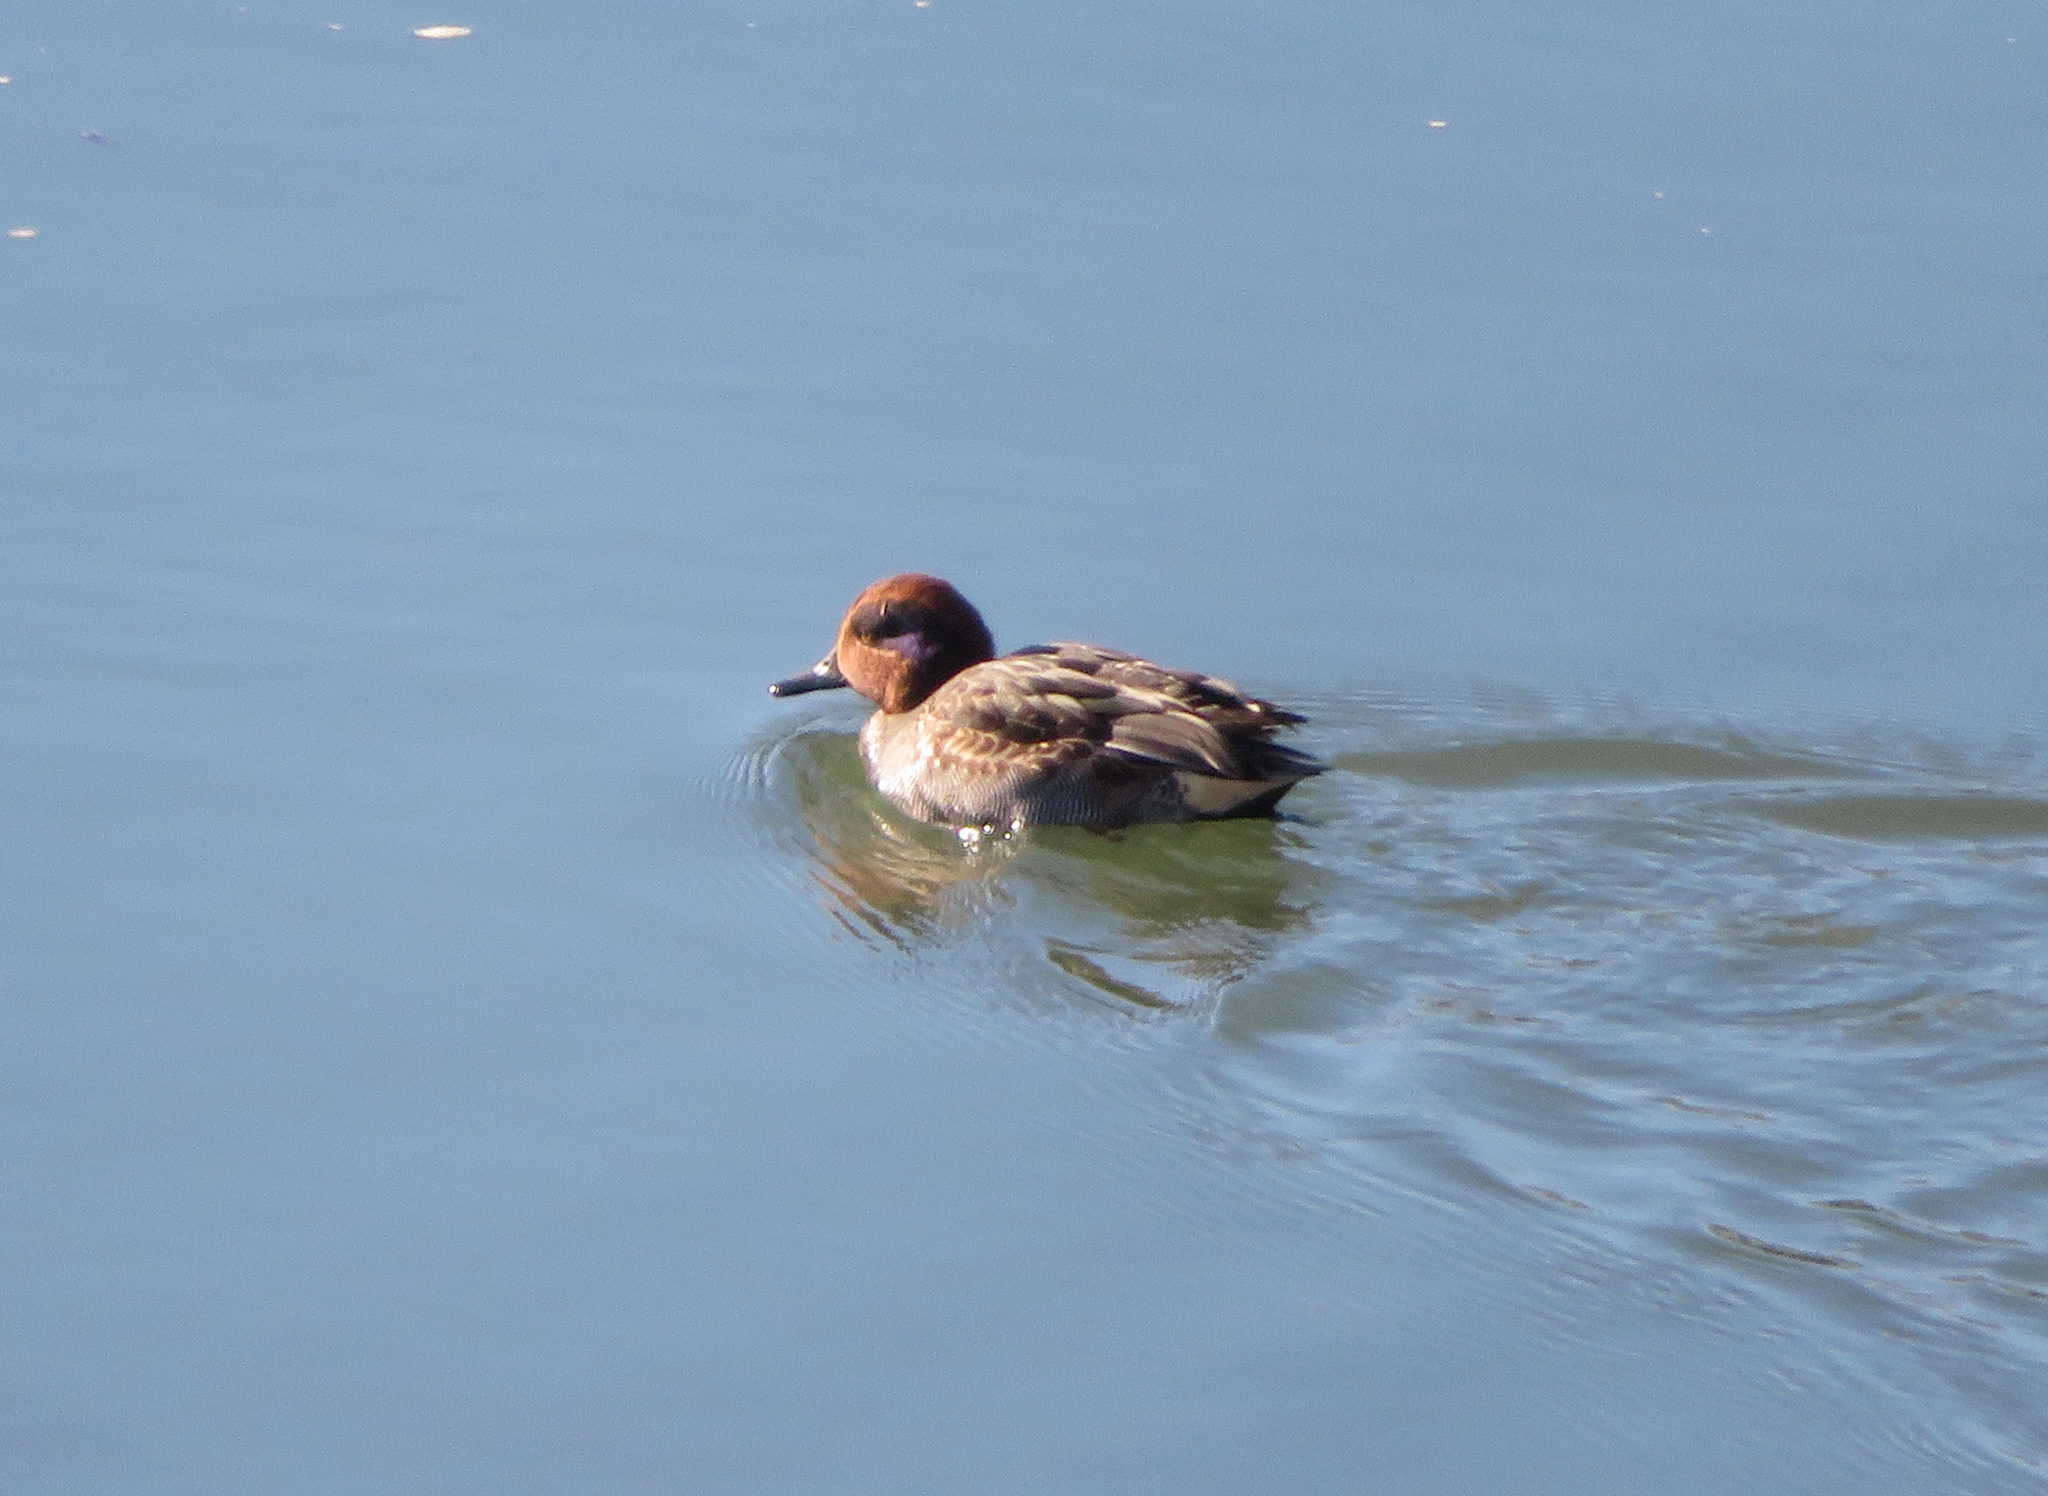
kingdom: Animalia
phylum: Chordata
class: Aves
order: Anseriformes
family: Anatidae
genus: Anas
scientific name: Anas crecca
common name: Eurasian teal
